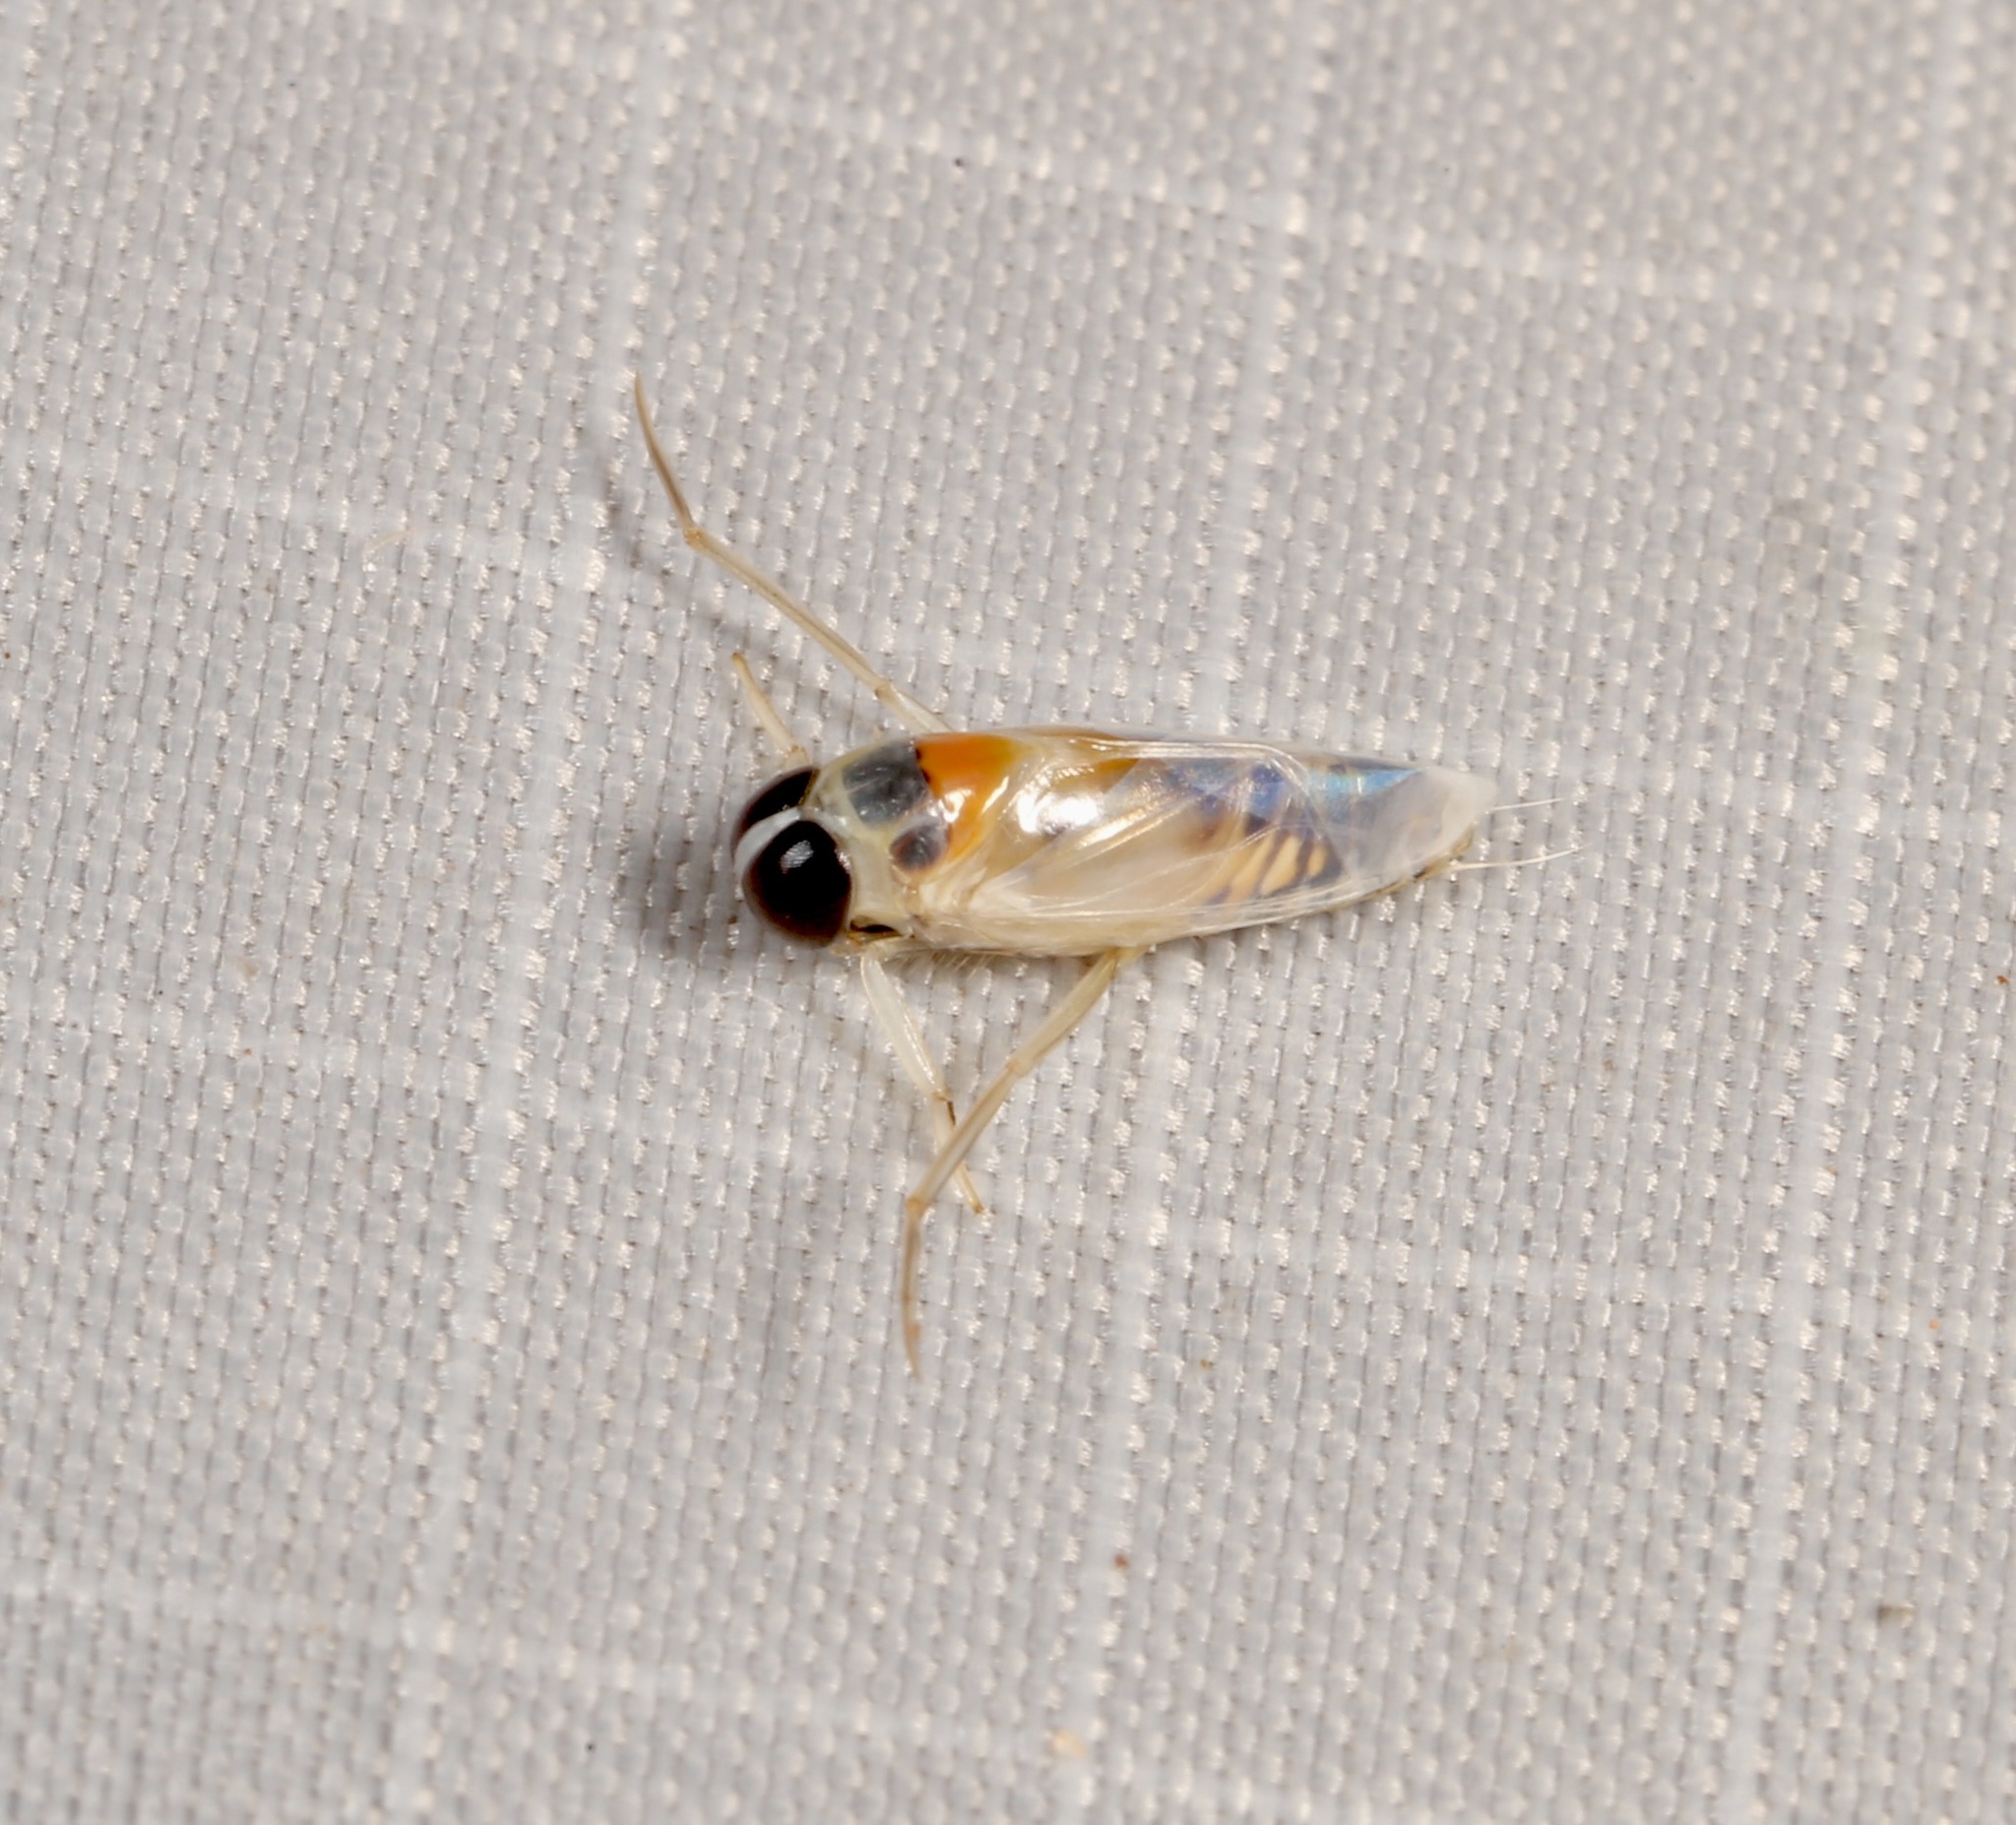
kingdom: Animalia
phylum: Arthropoda
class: Insecta
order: Hemiptera
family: Notonectidae
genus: Buenoa
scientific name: Buenoa
